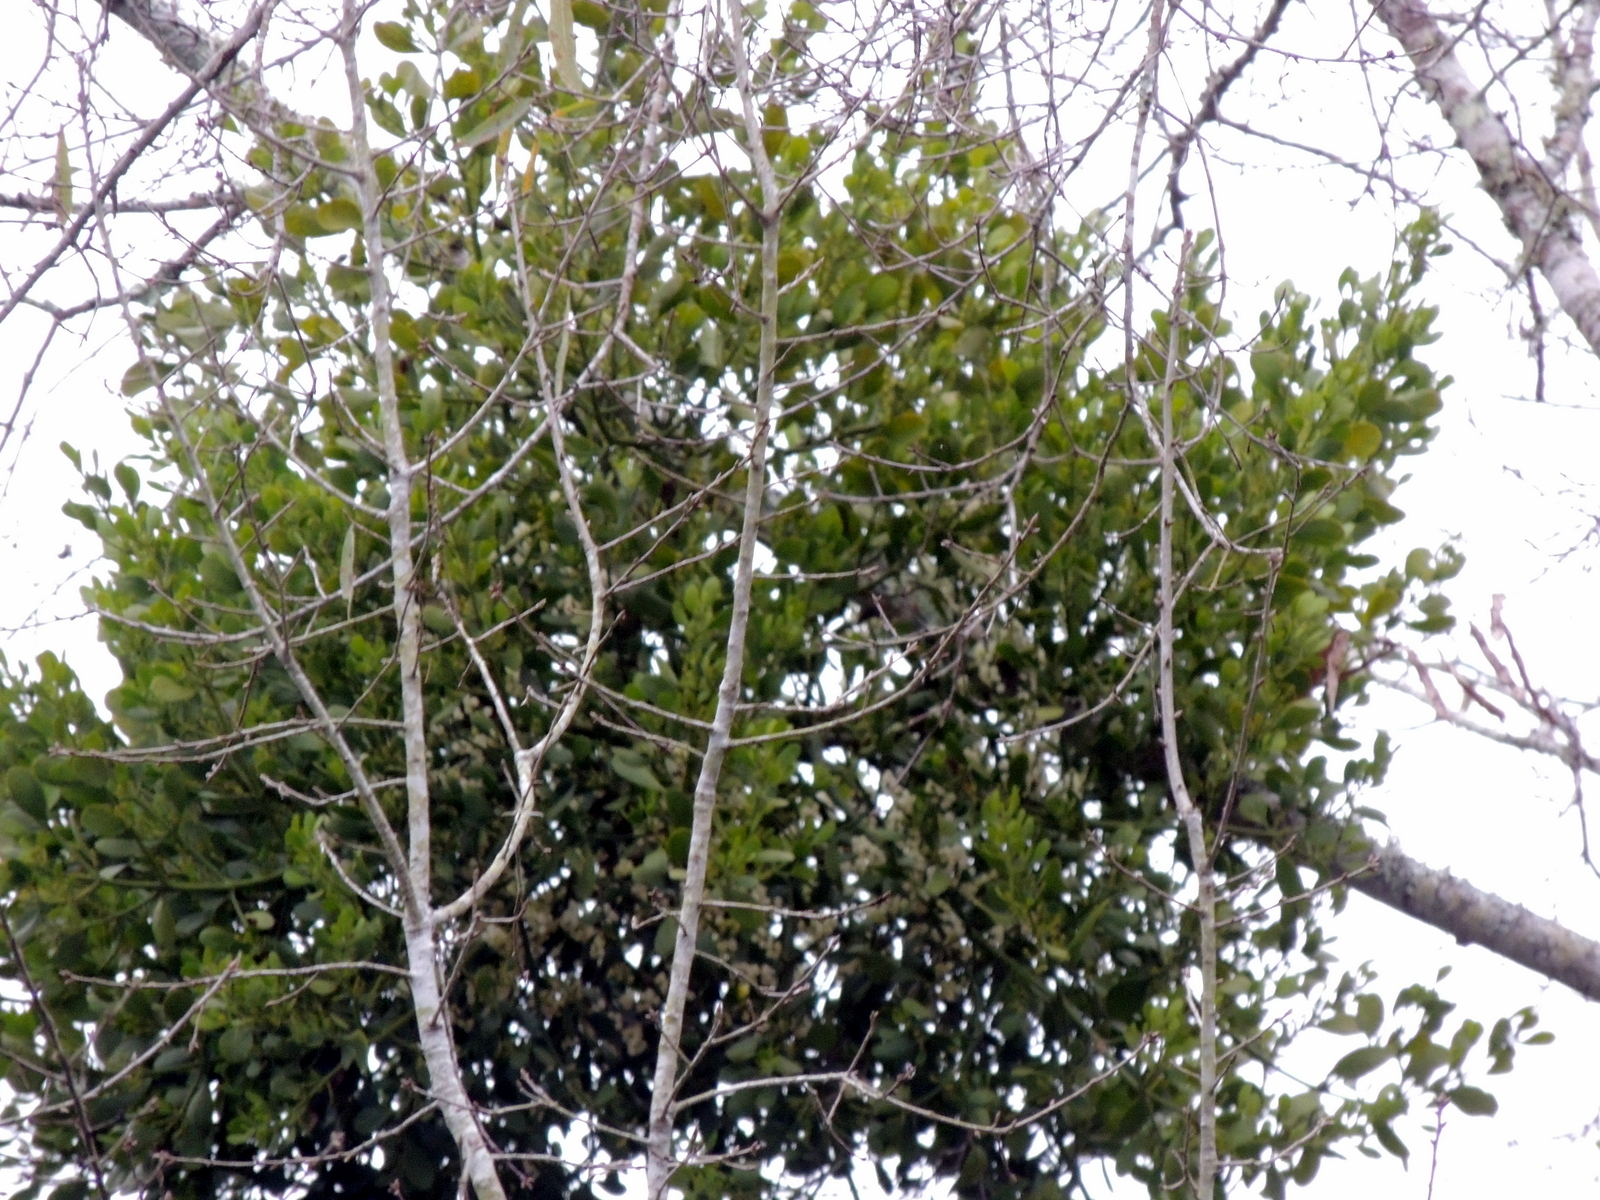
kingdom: Plantae
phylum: Tracheophyta
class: Magnoliopsida
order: Santalales
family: Viscaceae
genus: Phoradendron
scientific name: Phoradendron leucarpum
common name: Pacific mistletoe
